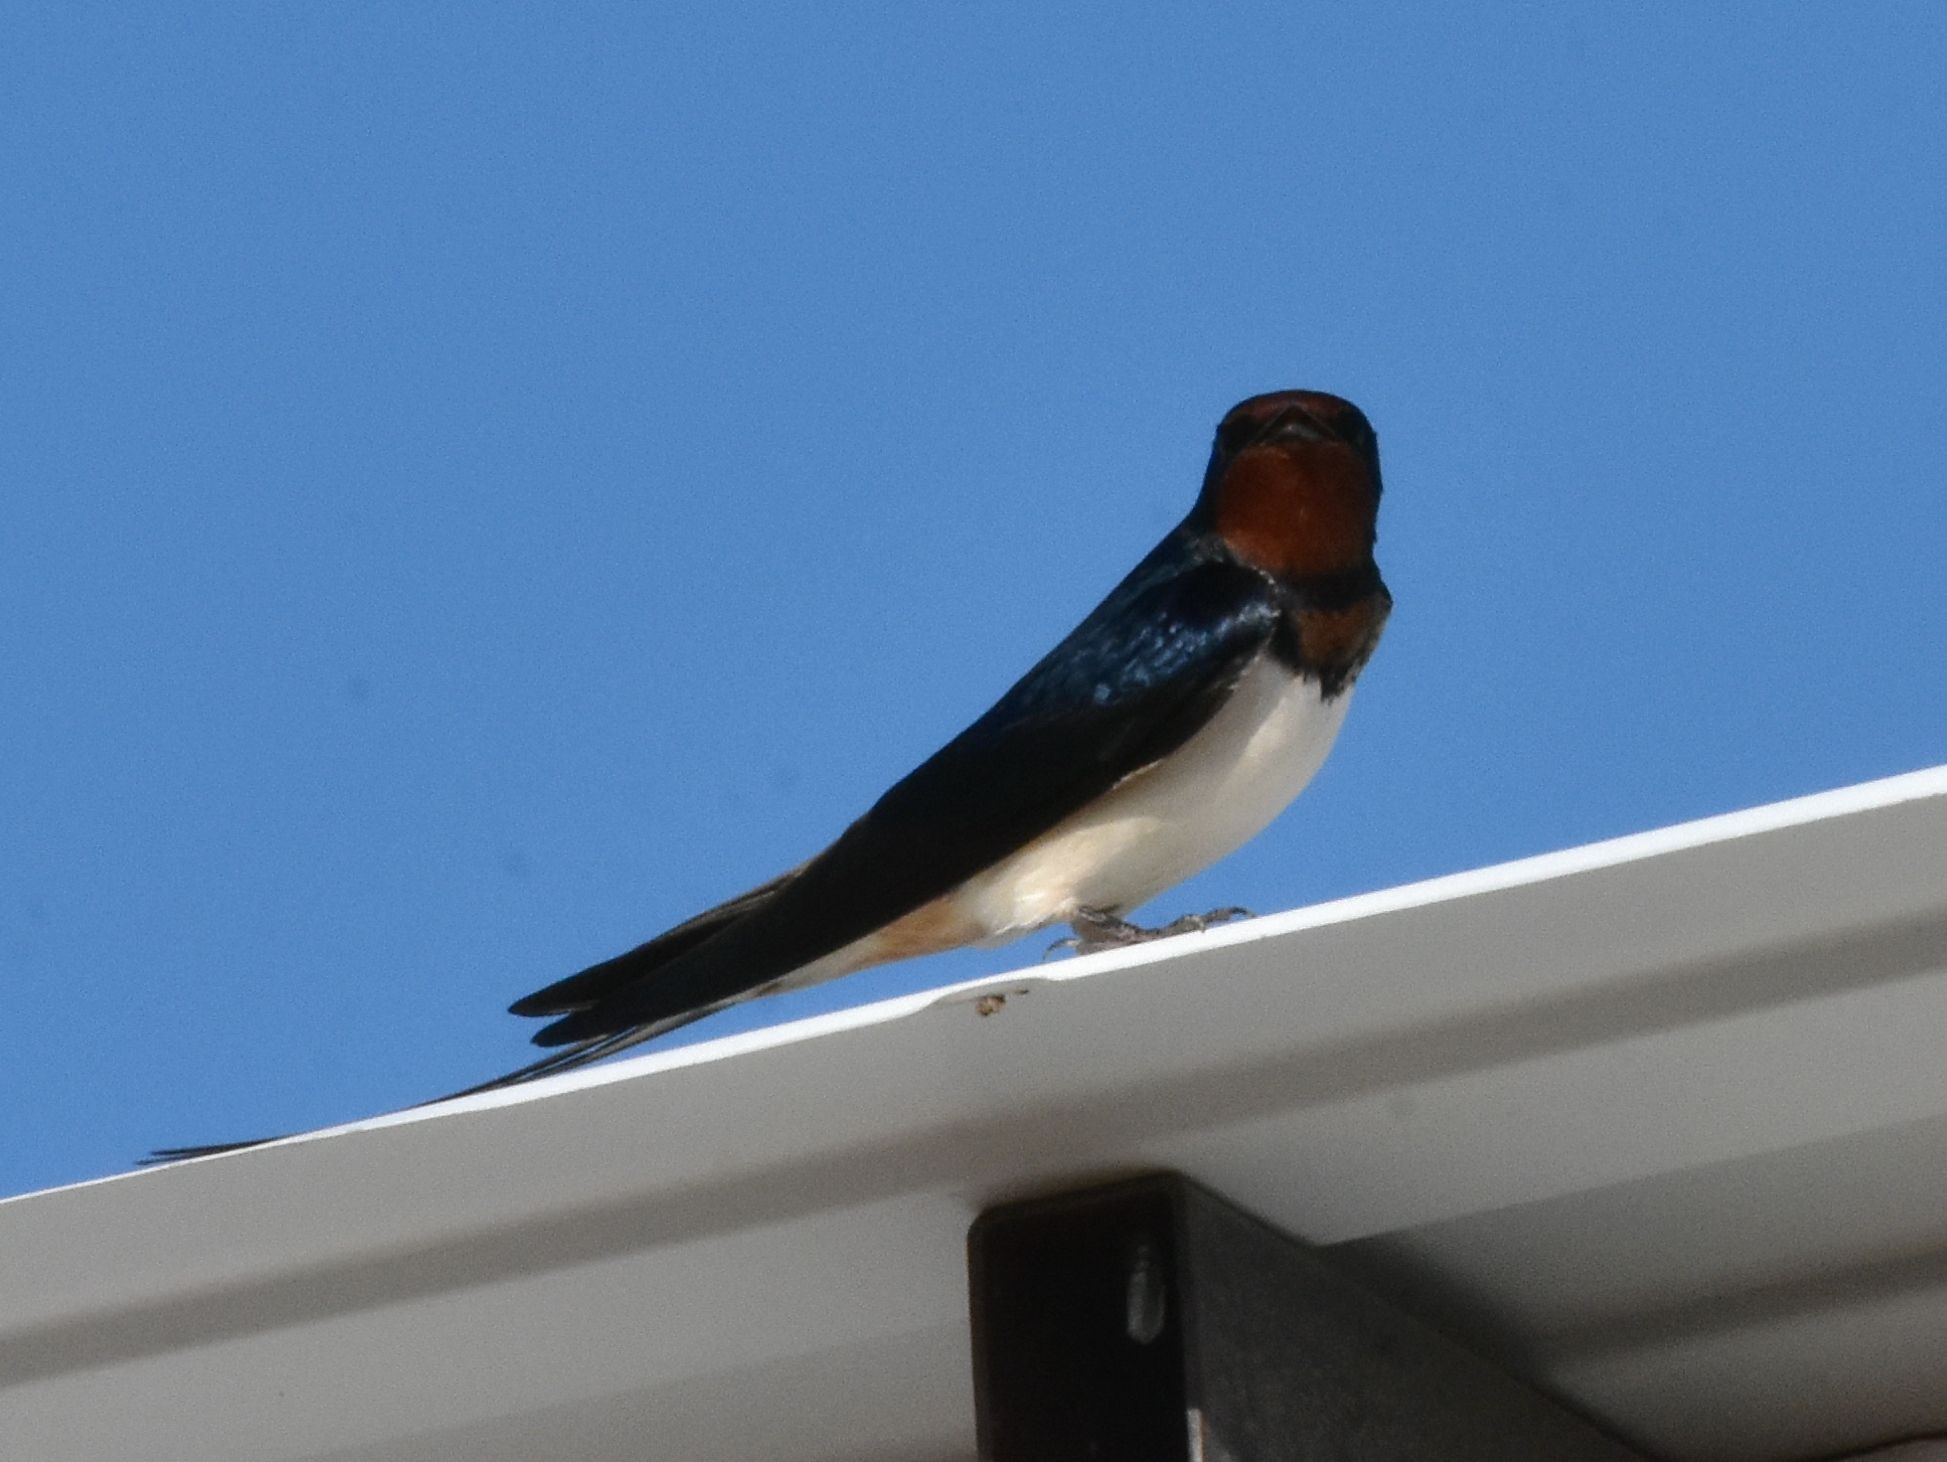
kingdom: Animalia
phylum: Chordata
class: Aves
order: Passeriformes
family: Hirundinidae
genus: Hirundo
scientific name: Hirundo rustica
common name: Barn swallow
